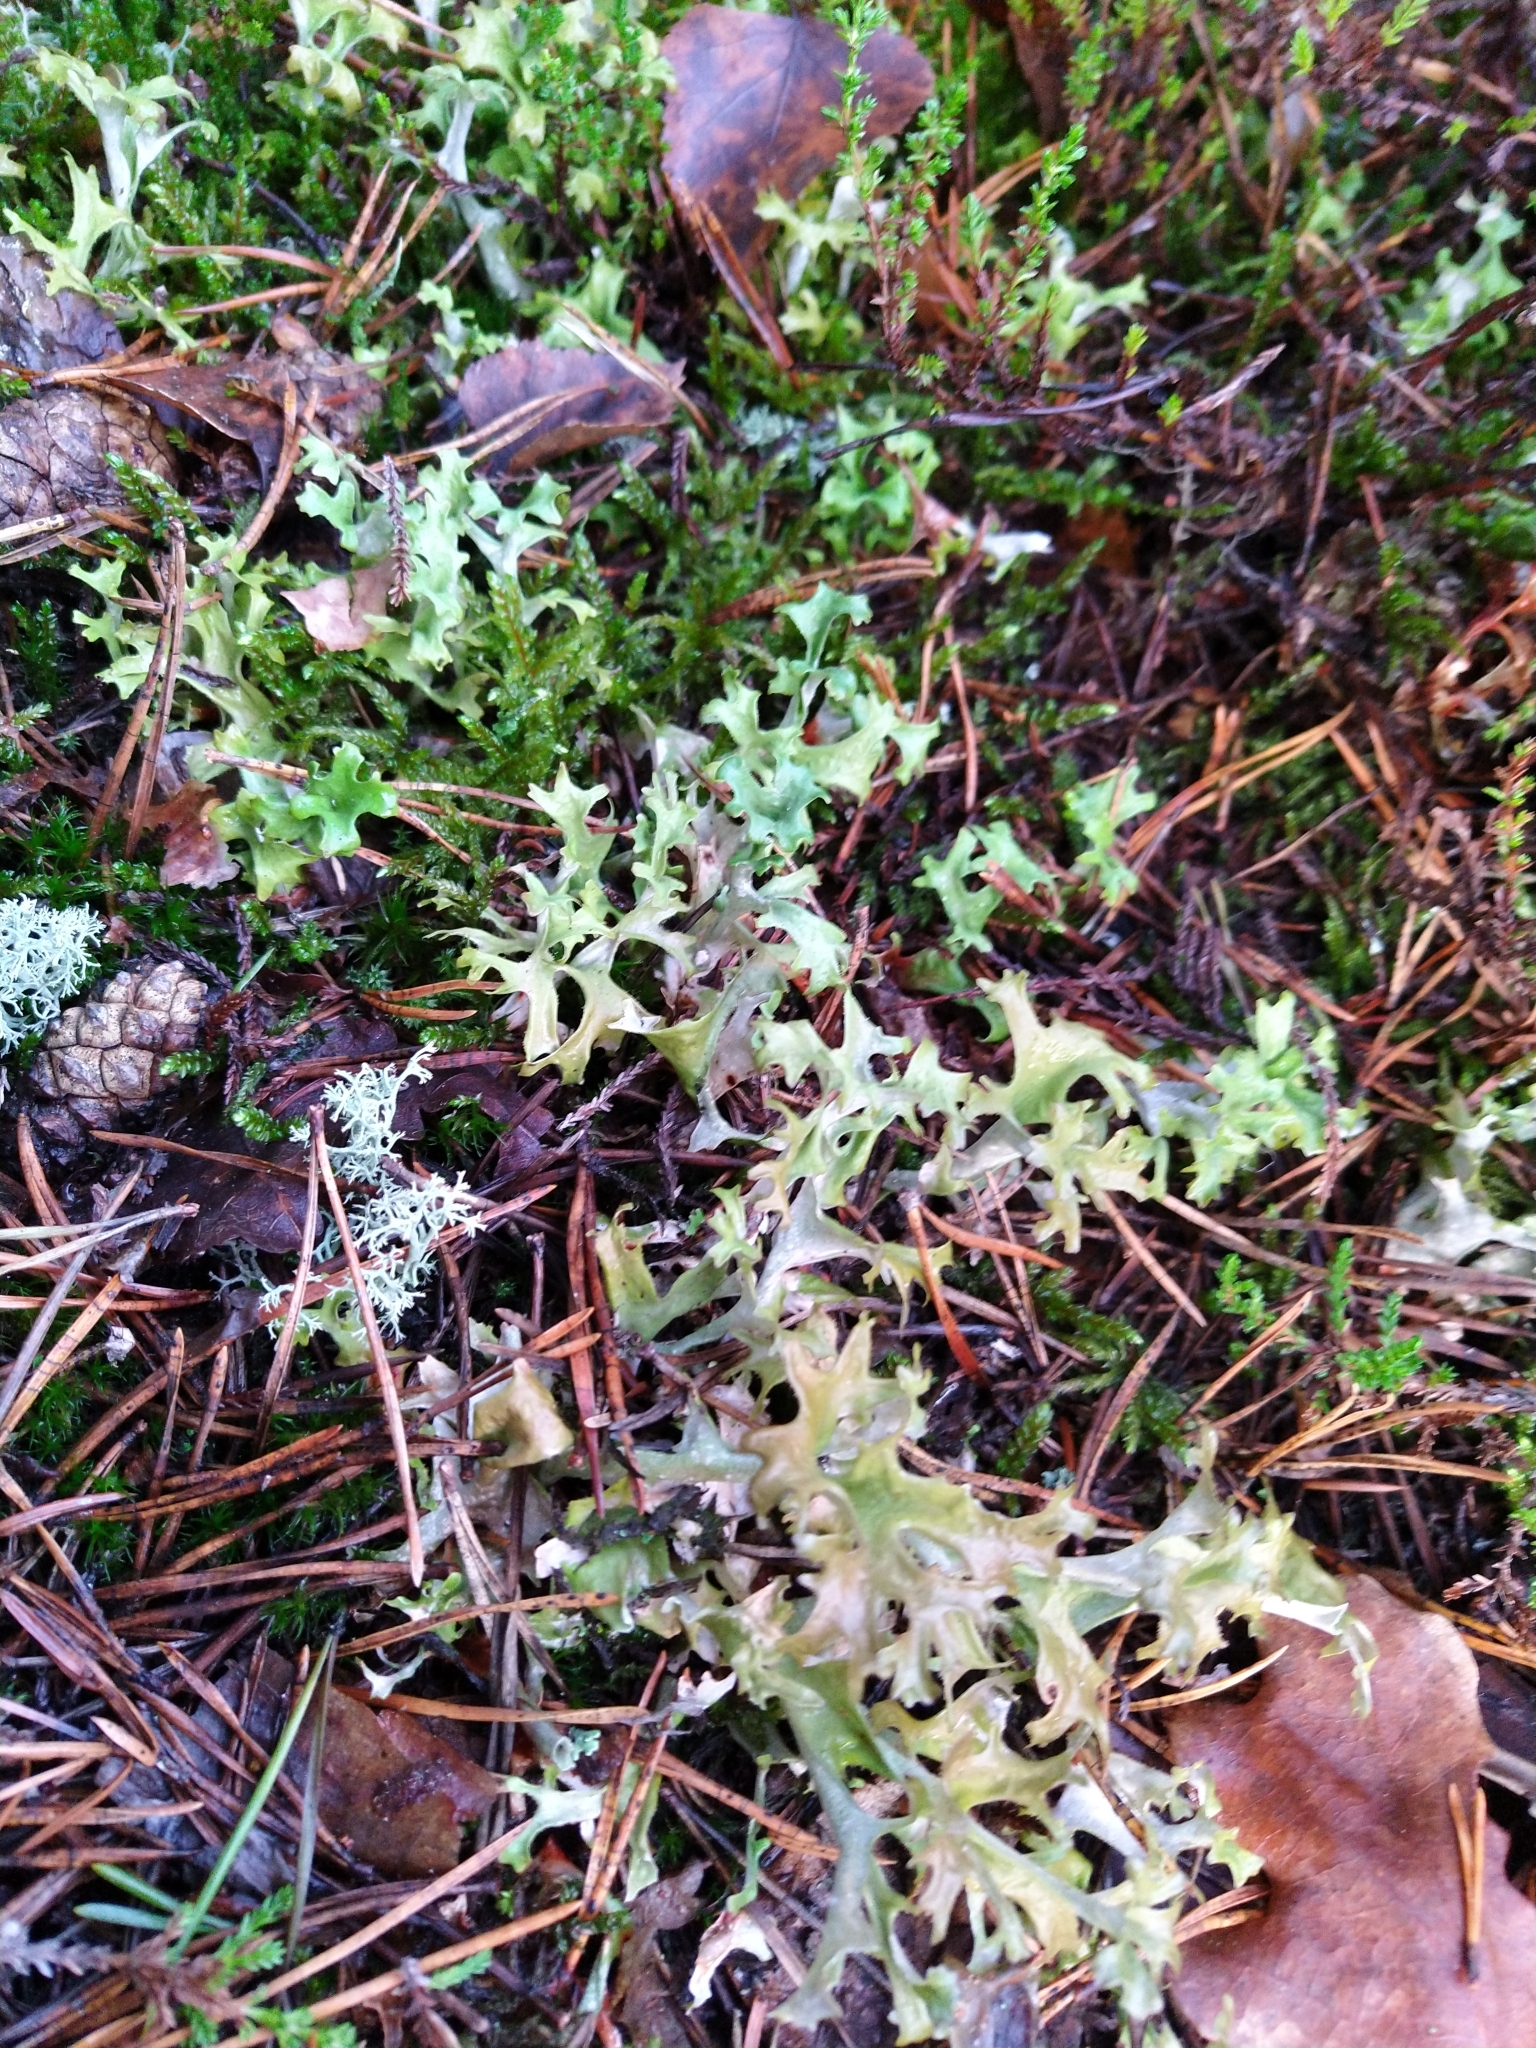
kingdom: Fungi
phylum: Ascomycota
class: Lecanoromycetes
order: Lecanorales
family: Parmeliaceae
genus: Cetraria
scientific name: Cetraria islandica
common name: Iceland lichen
